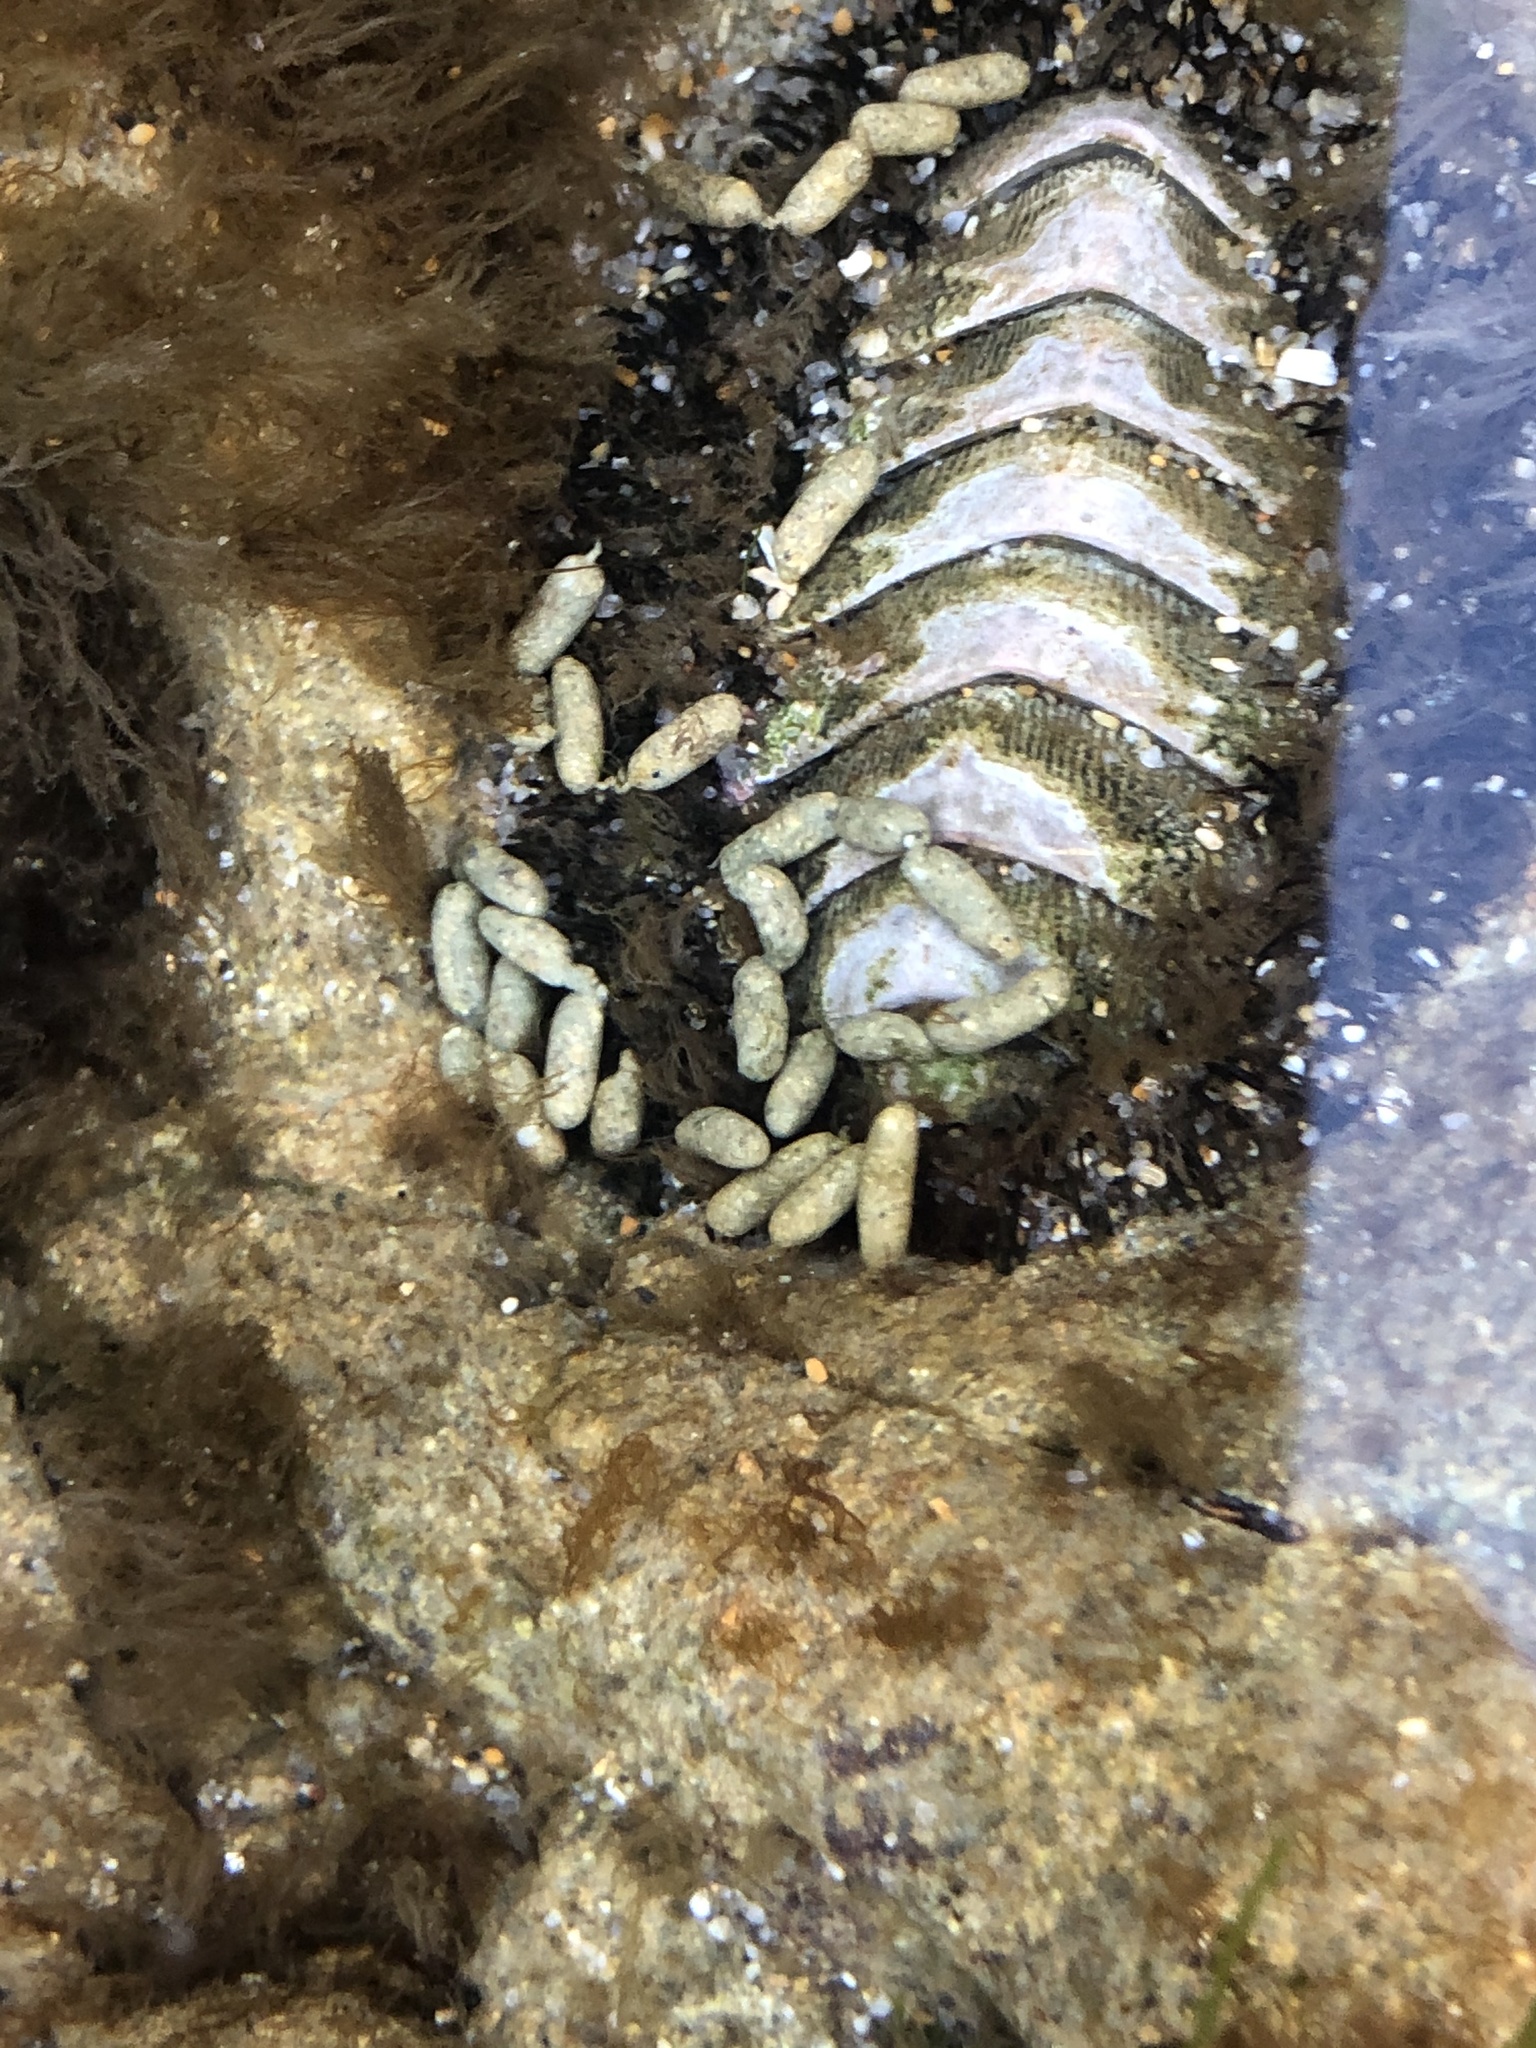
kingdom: Animalia
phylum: Mollusca
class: Polyplacophora
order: Chitonida
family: Mopaliidae
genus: Mopalia
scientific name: Mopalia muscosa
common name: Mossy chiton
